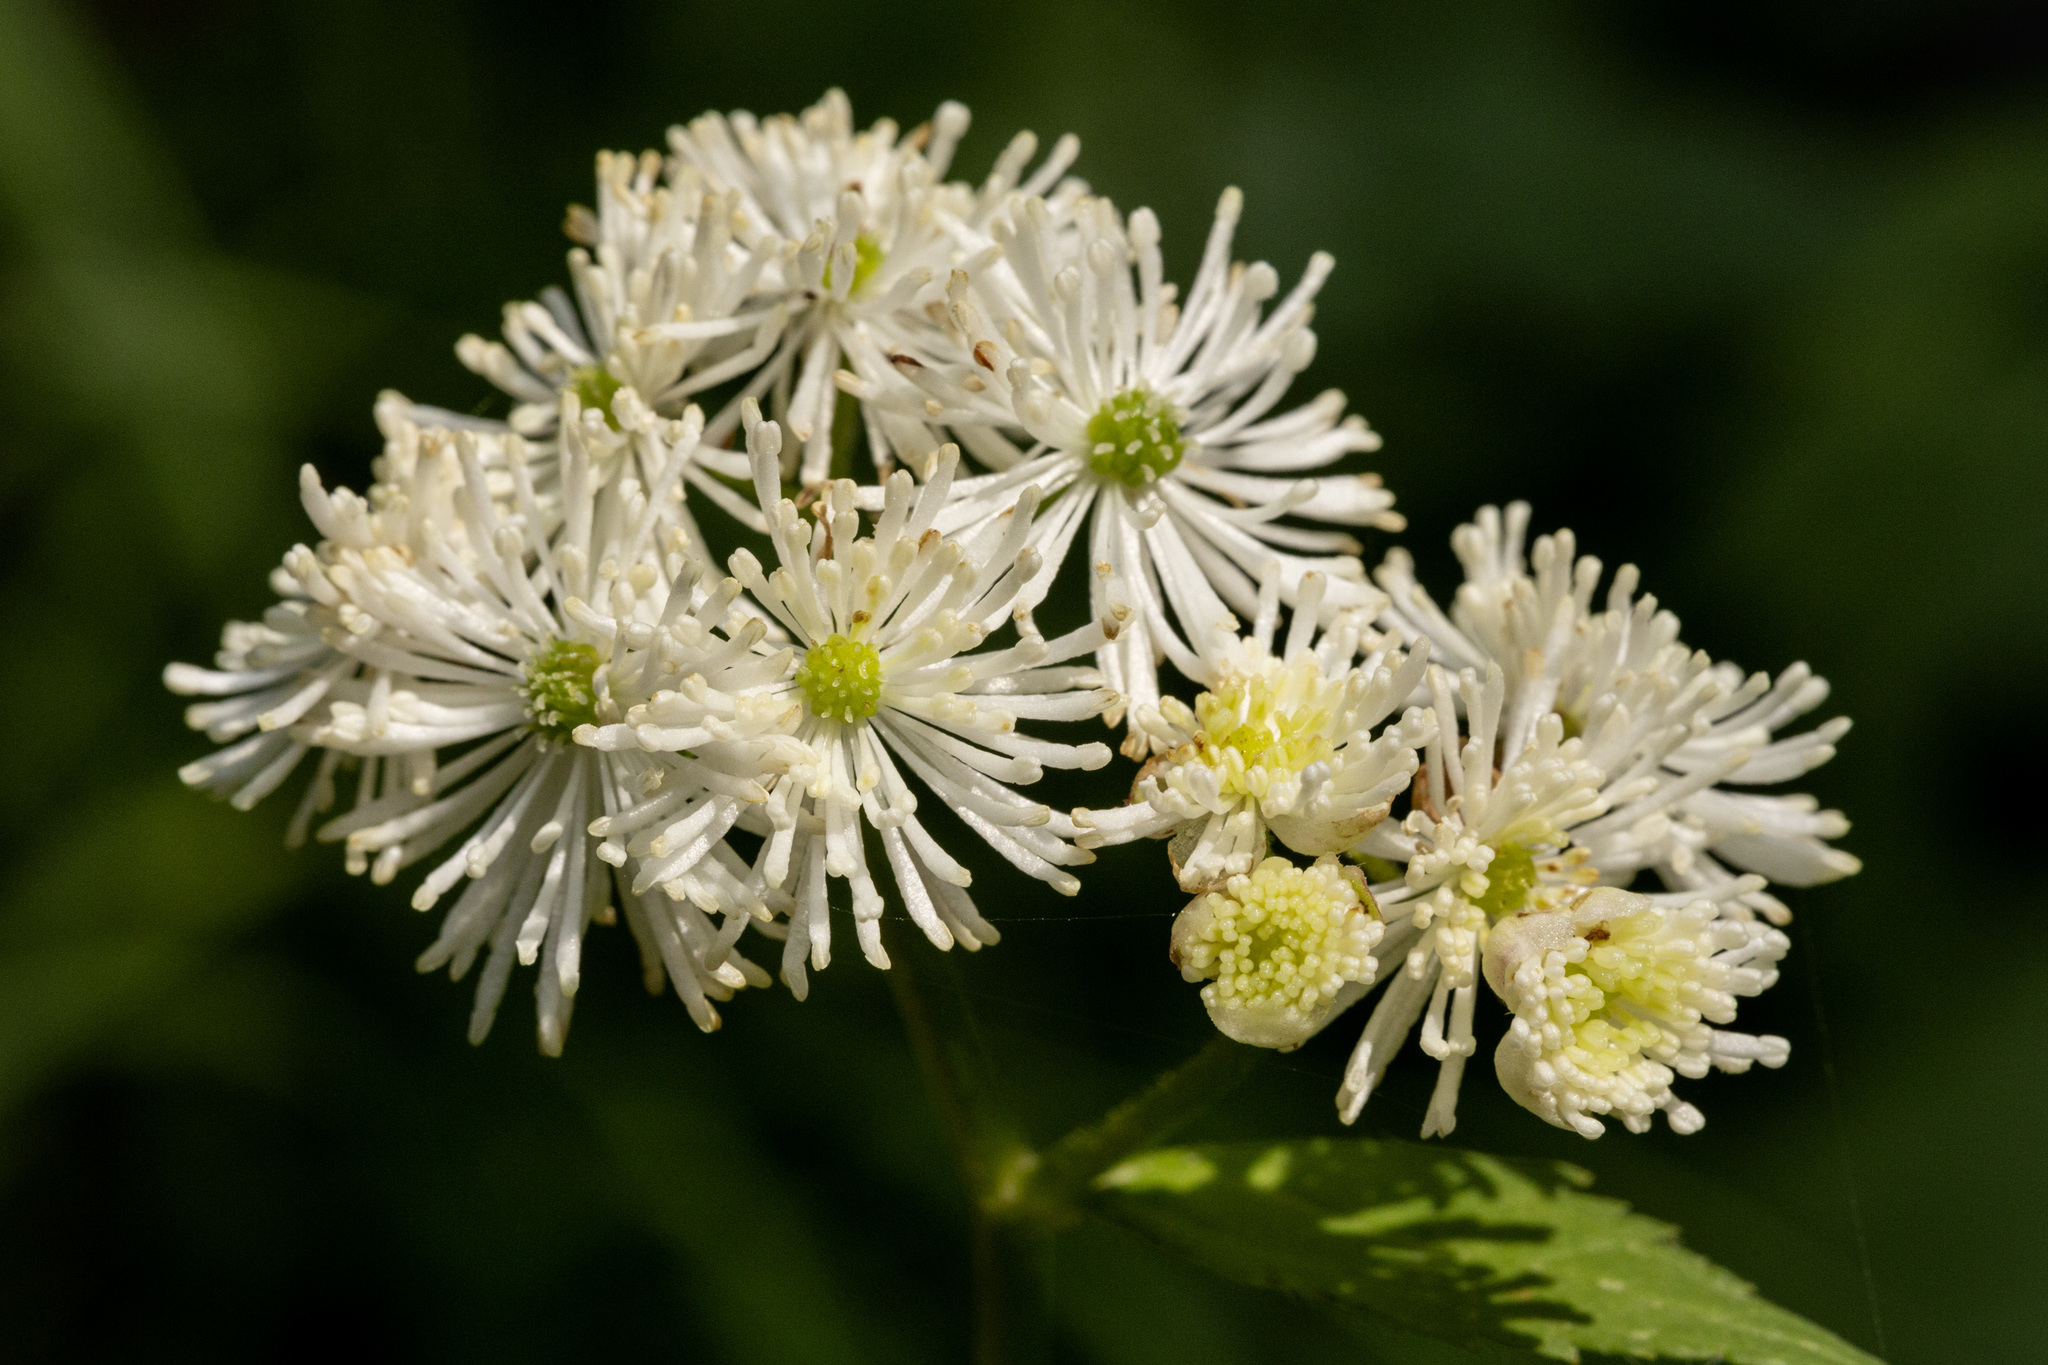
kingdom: Plantae
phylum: Tracheophyta
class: Magnoliopsida
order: Ranunculales
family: Ranunculaceae
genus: Trautvetteria
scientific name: Trautvetteria carolinensis
